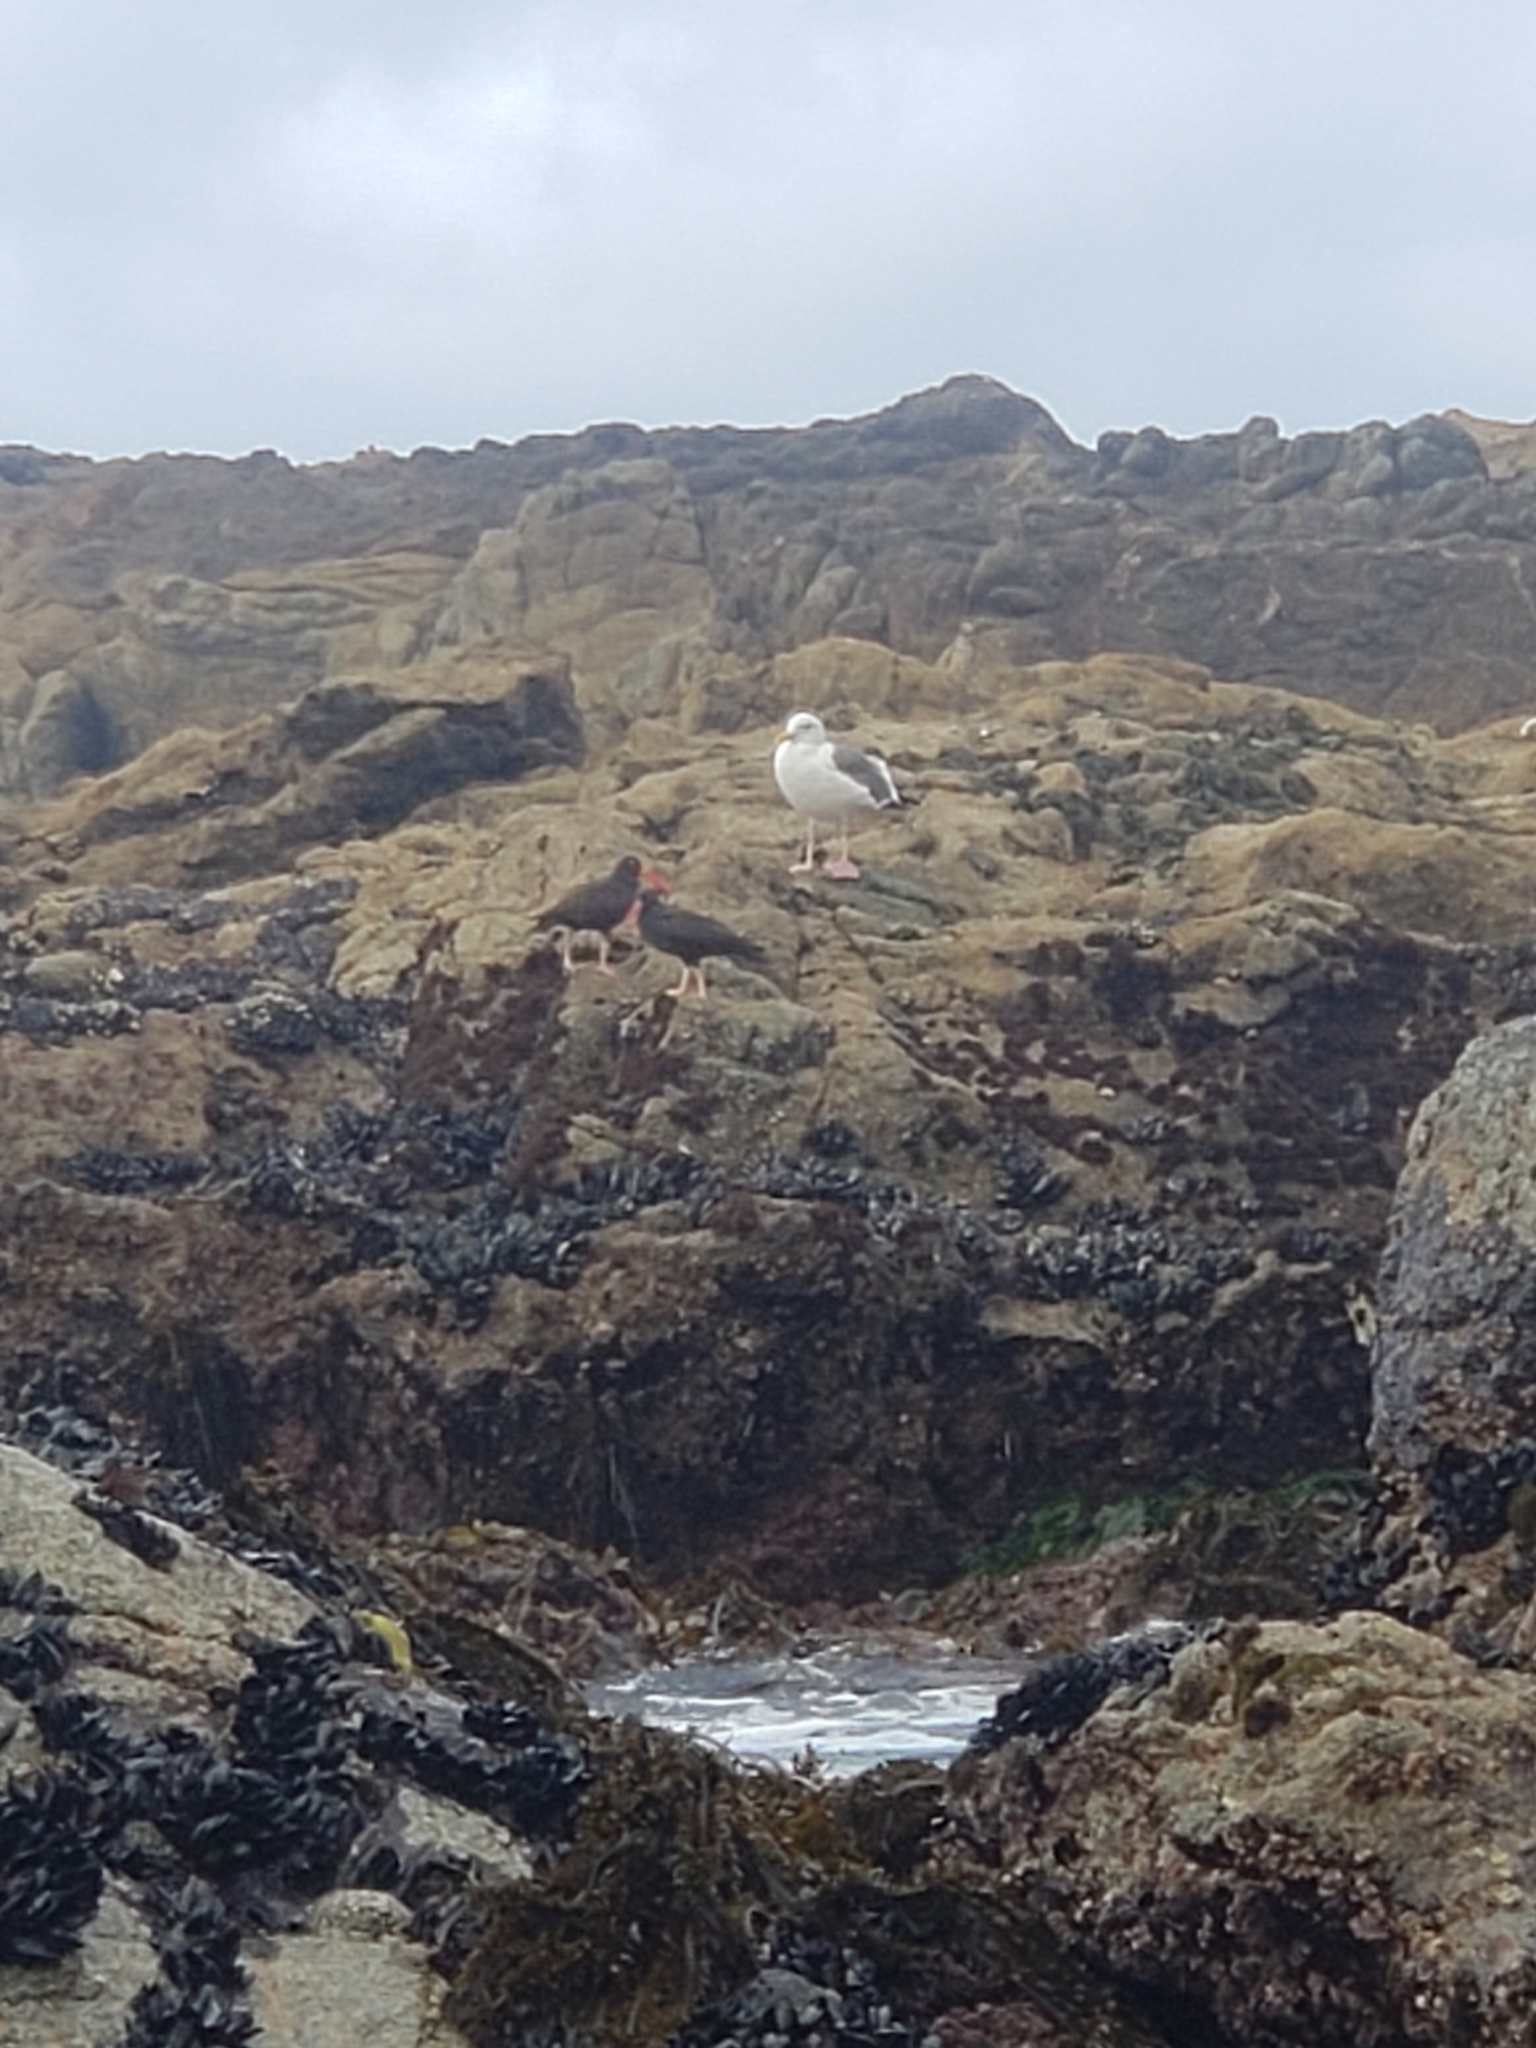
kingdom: Animalia
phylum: Chordata
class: Aves
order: Charadriiformes
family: Haematopodidae
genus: Haematopus
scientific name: Haematopus bachmani
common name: Black oystercatcher
